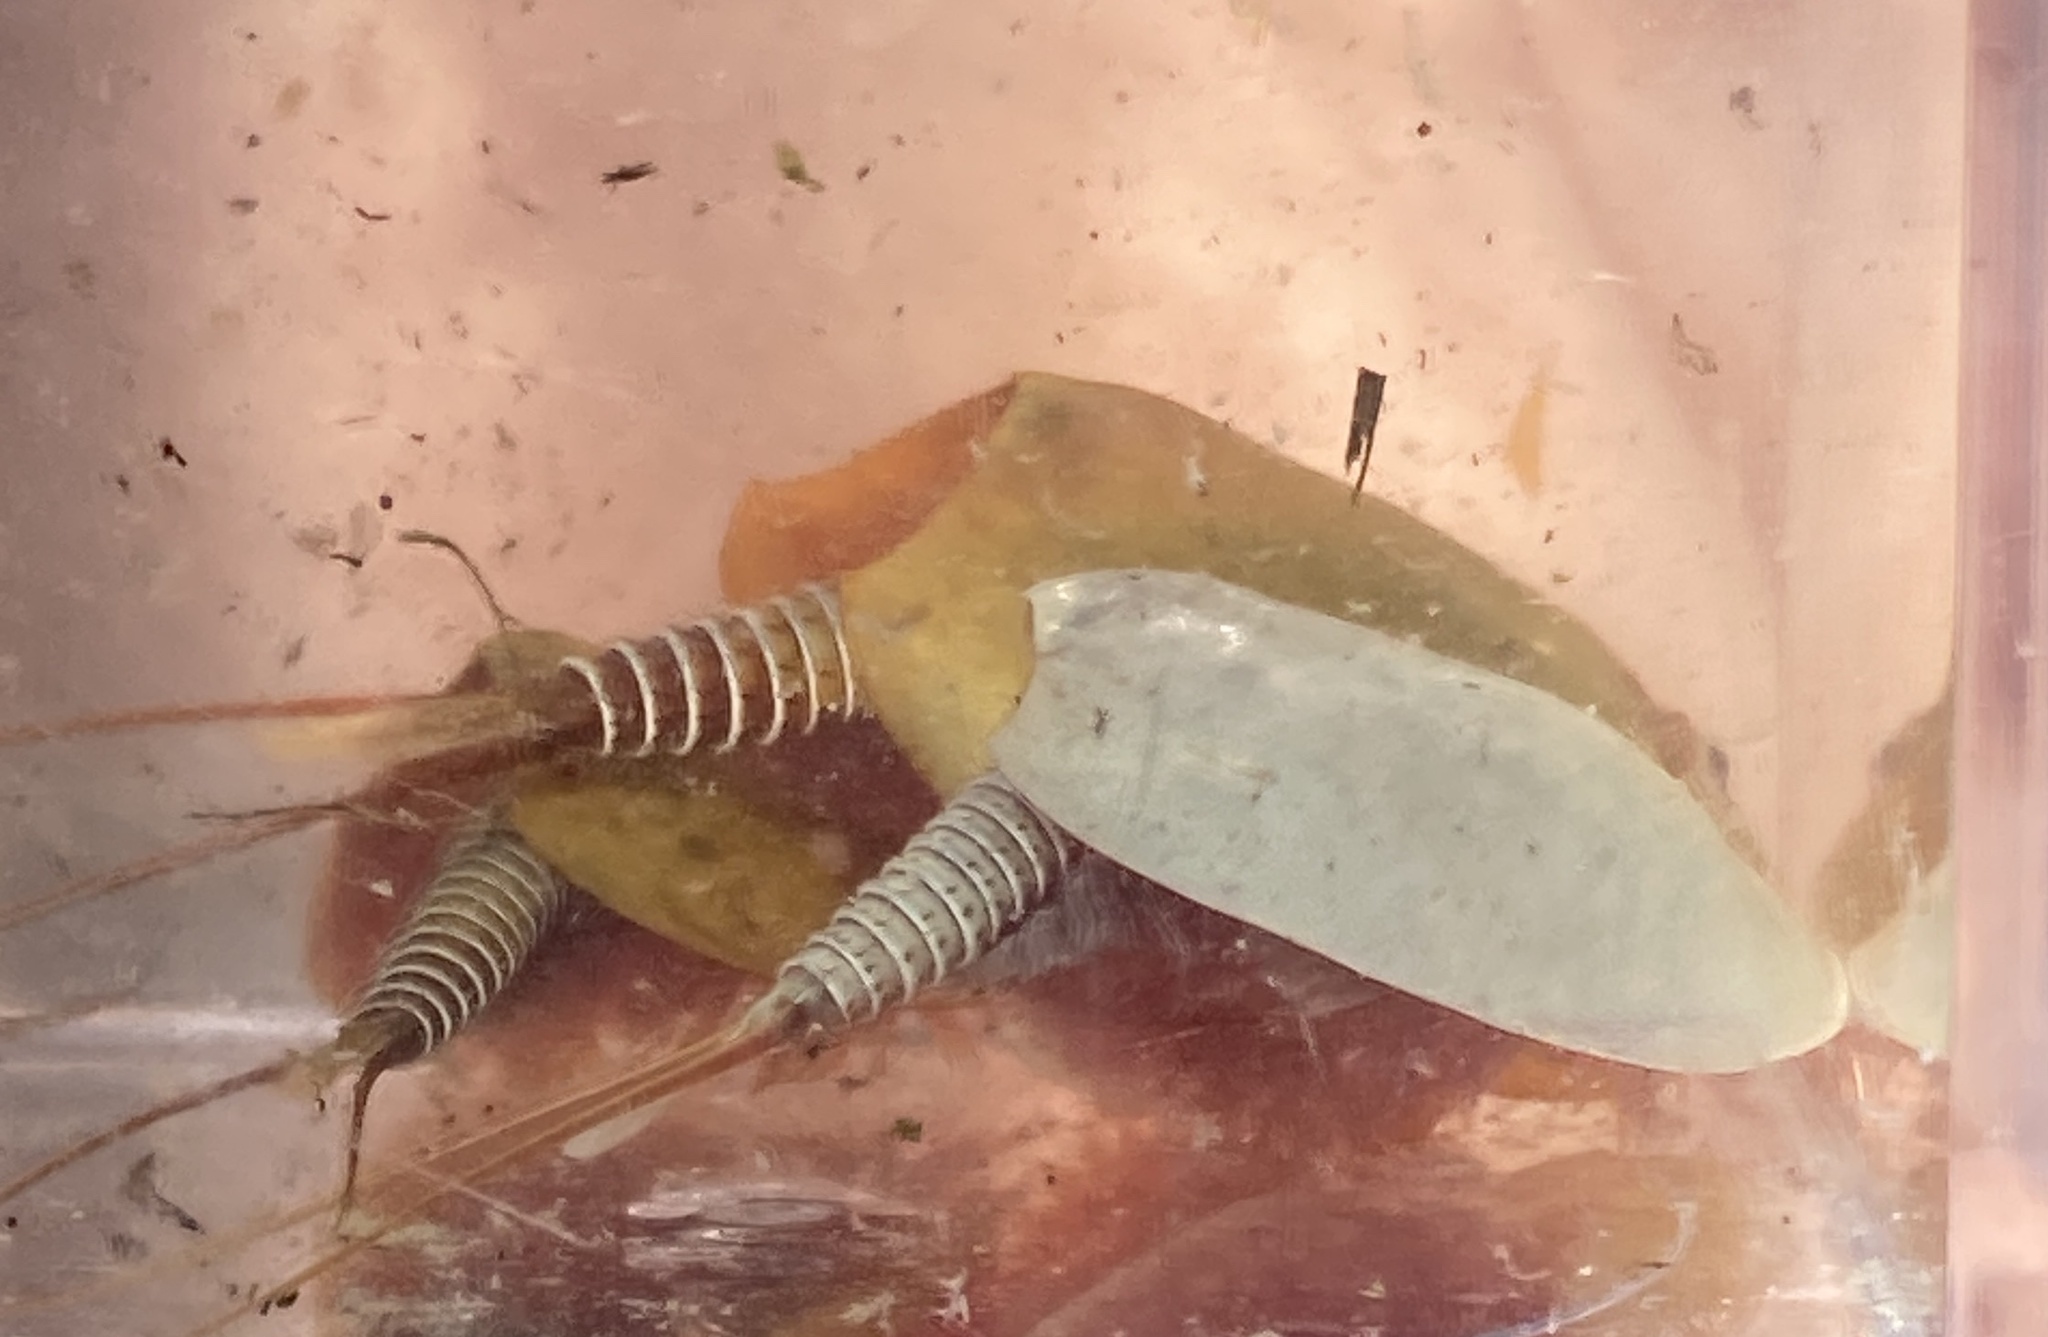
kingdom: Animalia
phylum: Arthropoda
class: Branchiopoda
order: Notostraca
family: Triopsidae
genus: Lepidurus
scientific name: Lepidurus packardi
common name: Vernal pool tadpole shrimp
